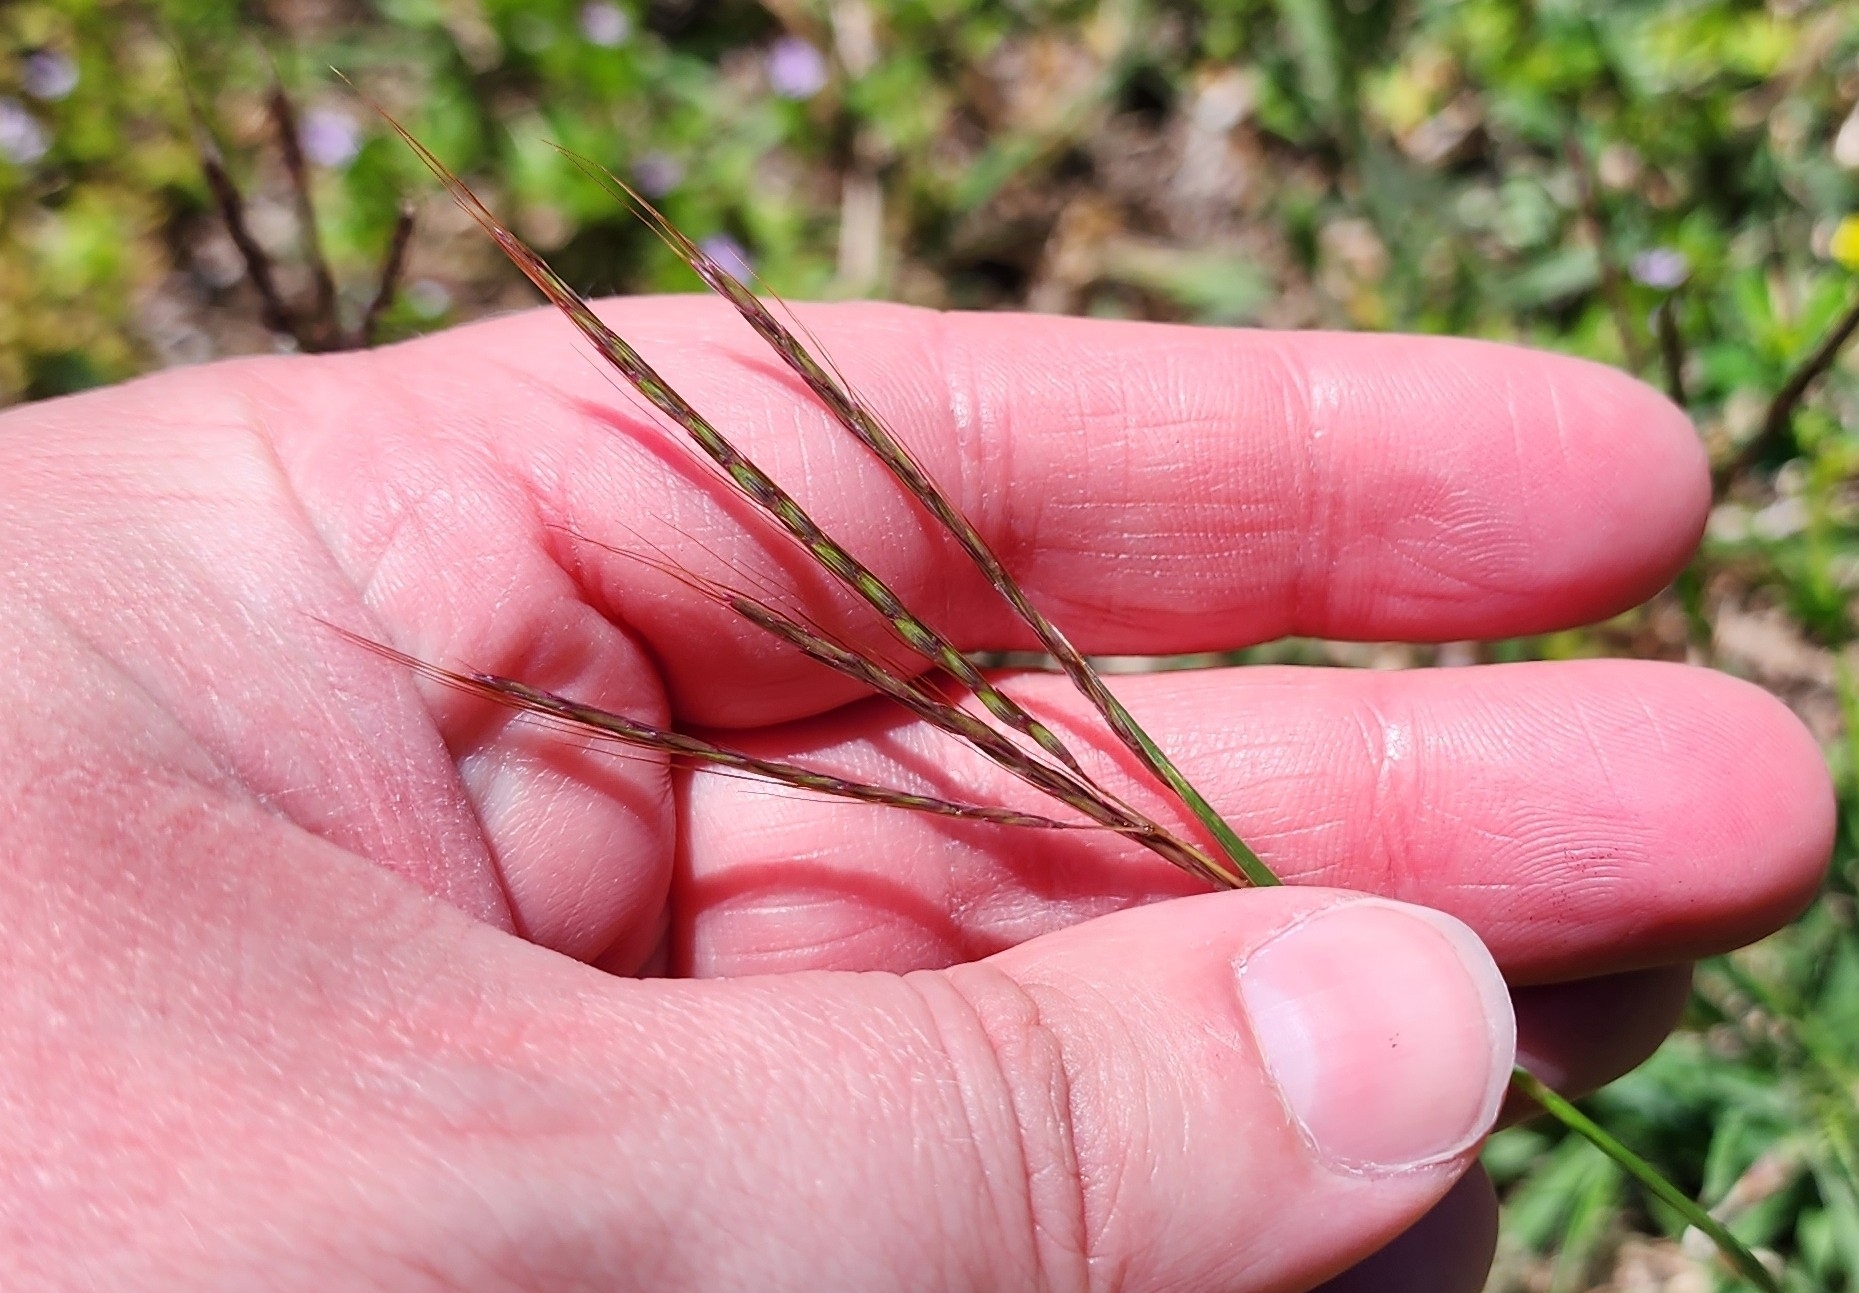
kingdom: Plantae
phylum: Tracheophyta
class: Liliopsida
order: Poales
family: Poaceae
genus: Bothriochloa
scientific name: Bothriochloa ischaemum
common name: Yellow bluestem
